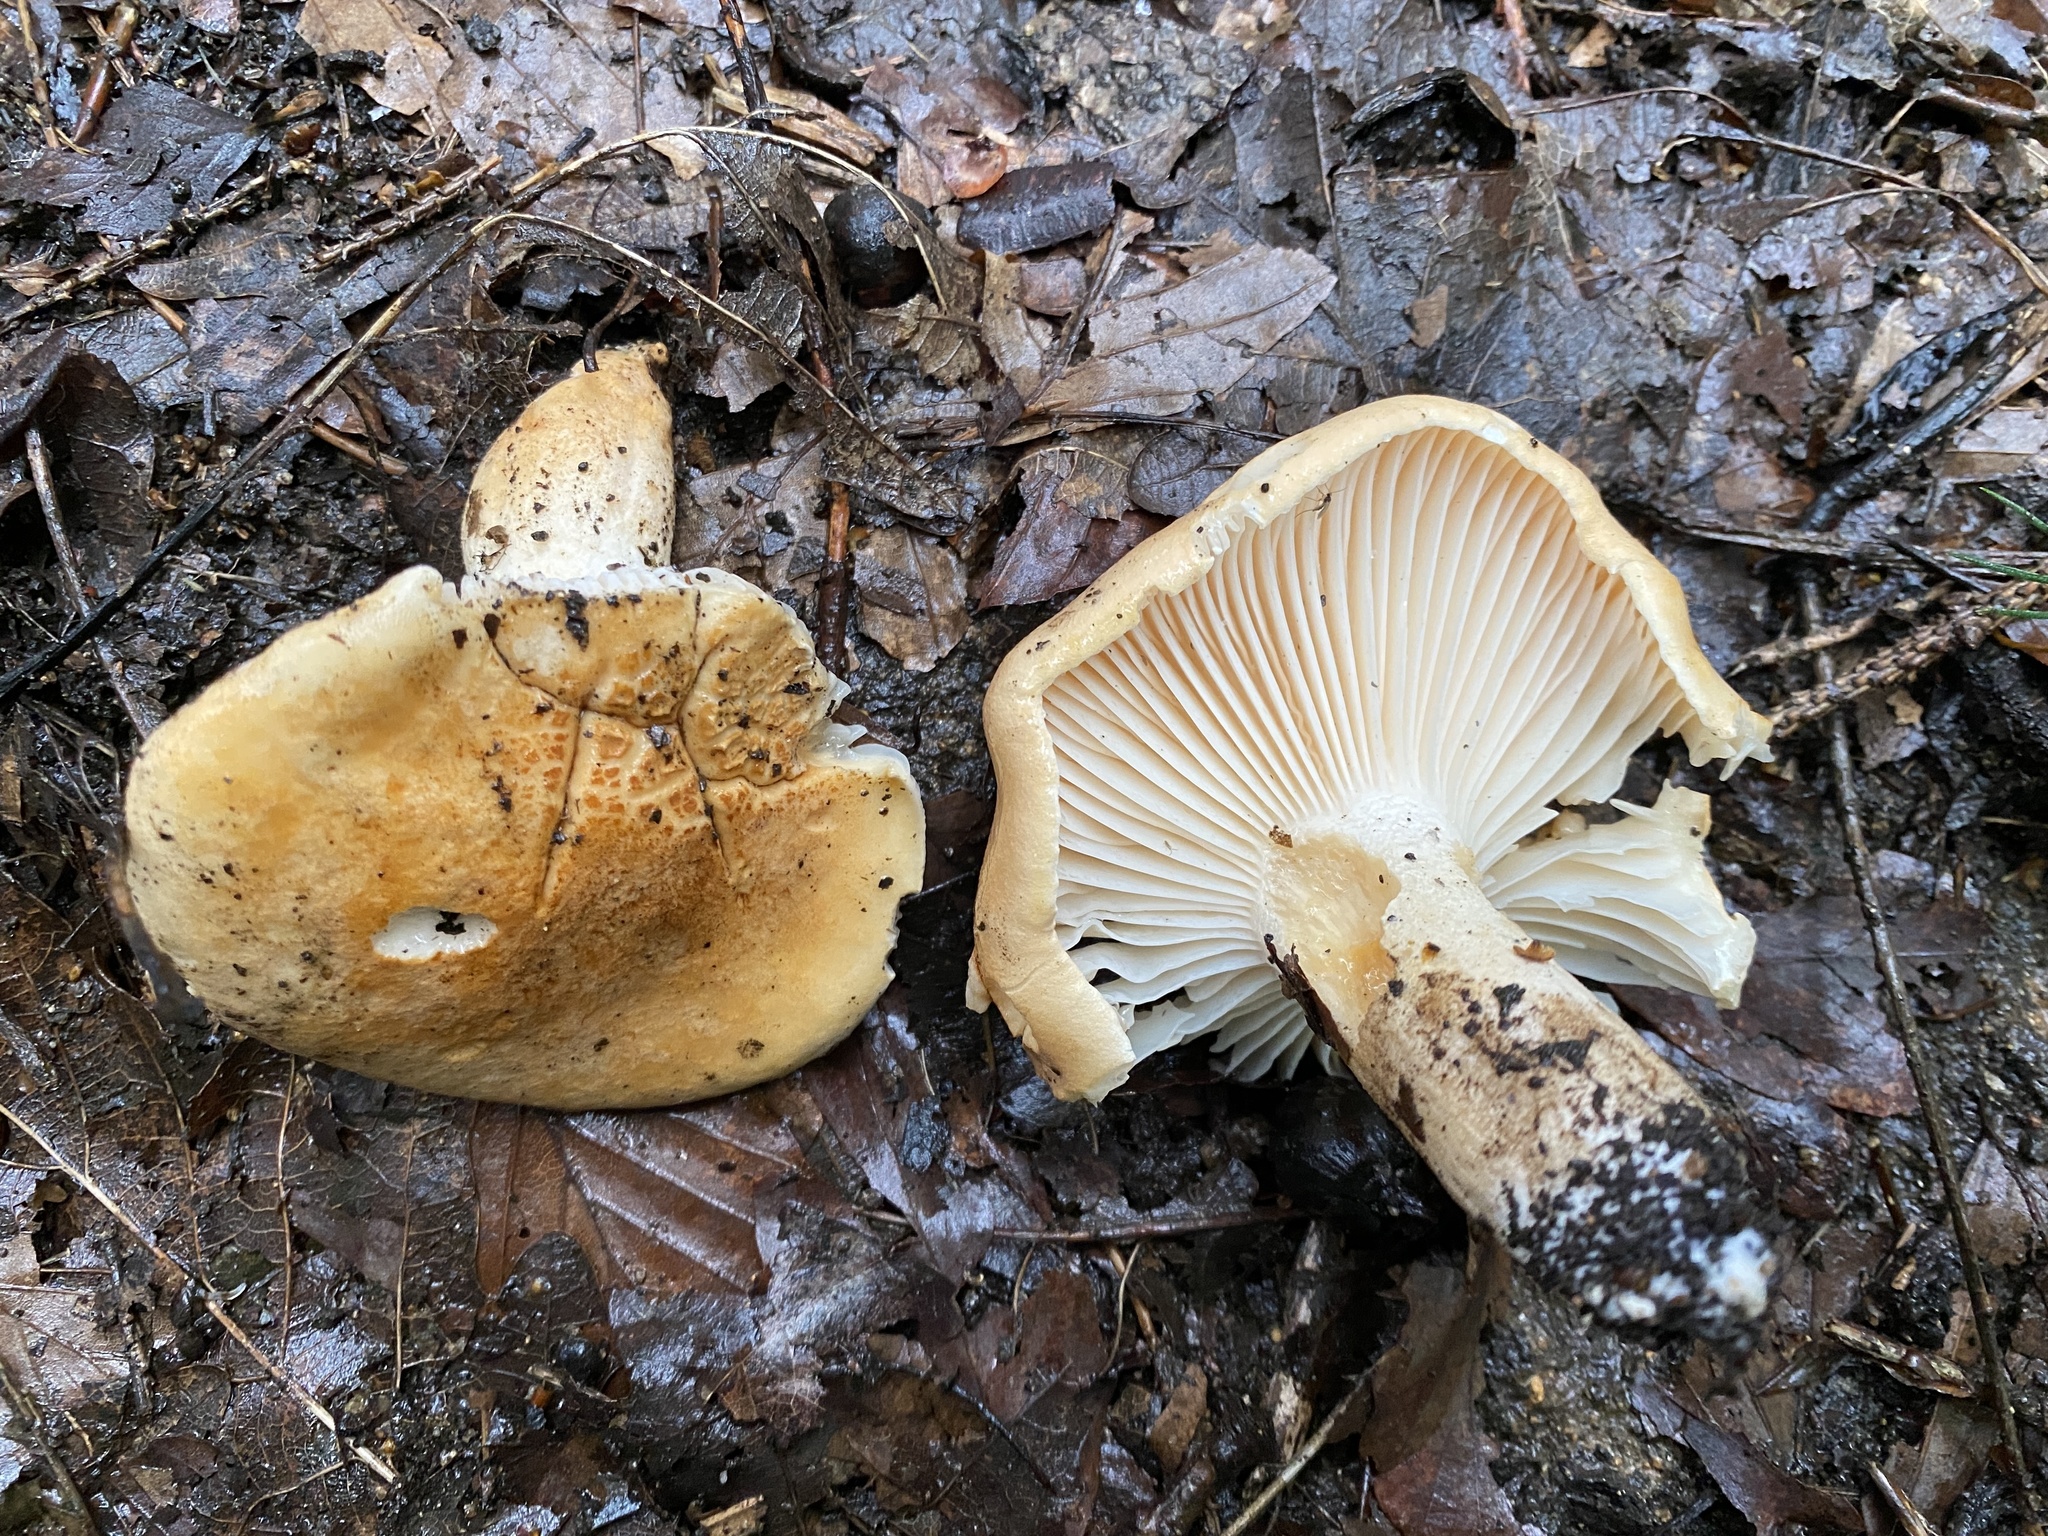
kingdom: Fungi
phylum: Basidiomycota
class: Agaricomycetes
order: Agaricales
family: Hygrophoraceae
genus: Hygrophorus
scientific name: Hygrophorus nemoreus
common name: Oak woodwax
